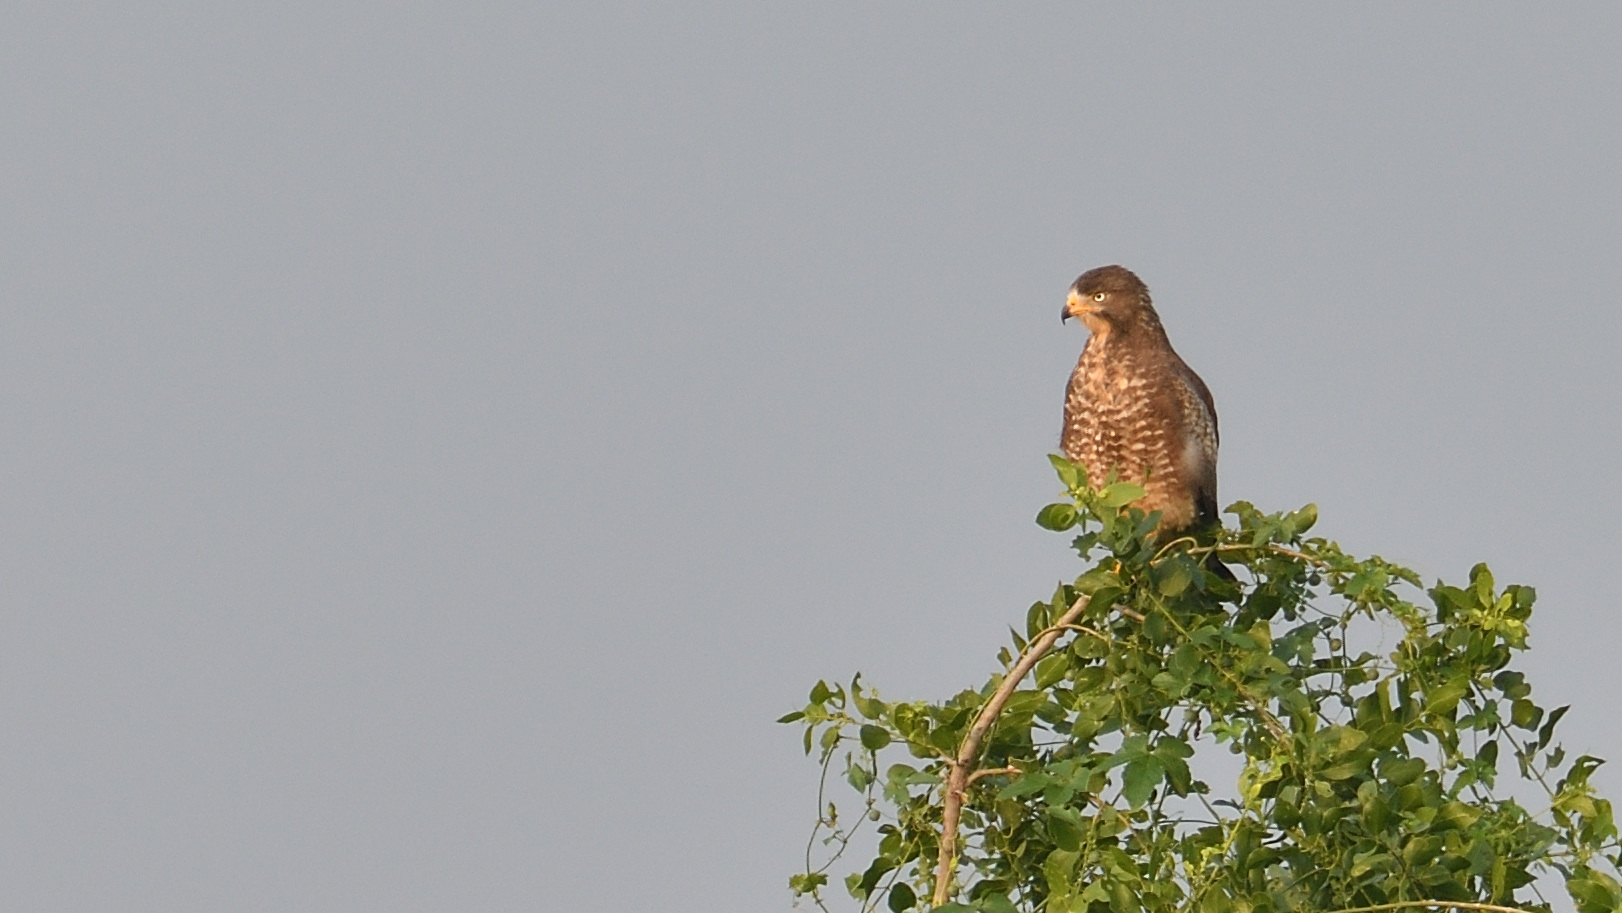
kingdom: Animalia
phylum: Chordata
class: Aves
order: Accipitriformes
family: Accipitridae
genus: Butastur
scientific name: Butastur teesa
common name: White-eyed buzzard
